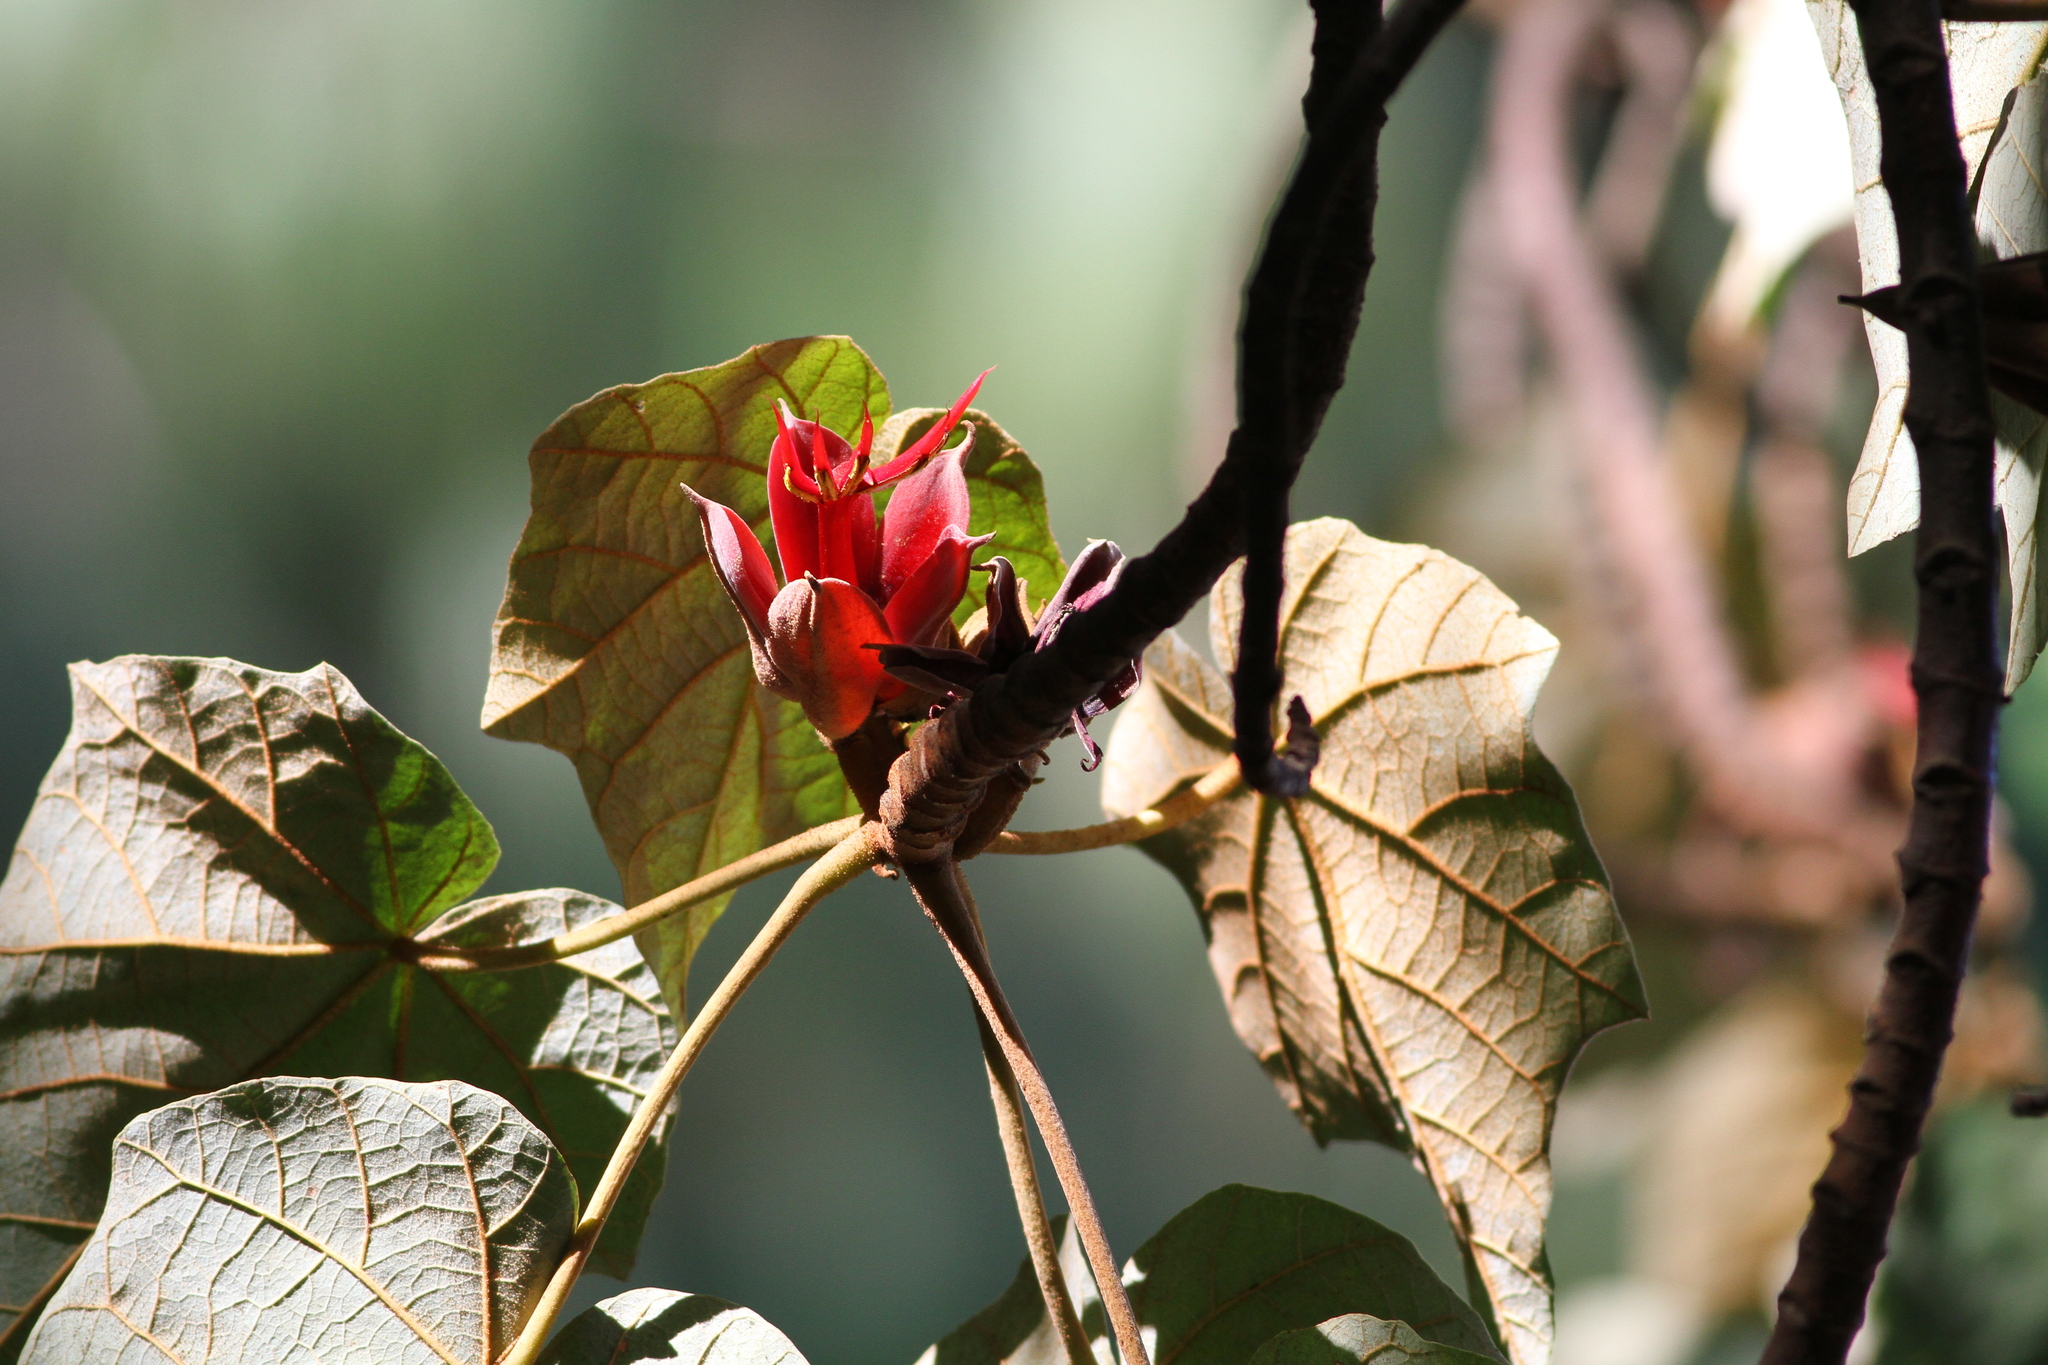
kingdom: Plantae
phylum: Tracheophyta
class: Magnoliopsida
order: Malvales
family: Malvaceae
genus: Chiranthodendron
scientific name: Chiranthodendron pentadactylon
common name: Mexican-hat-plant
